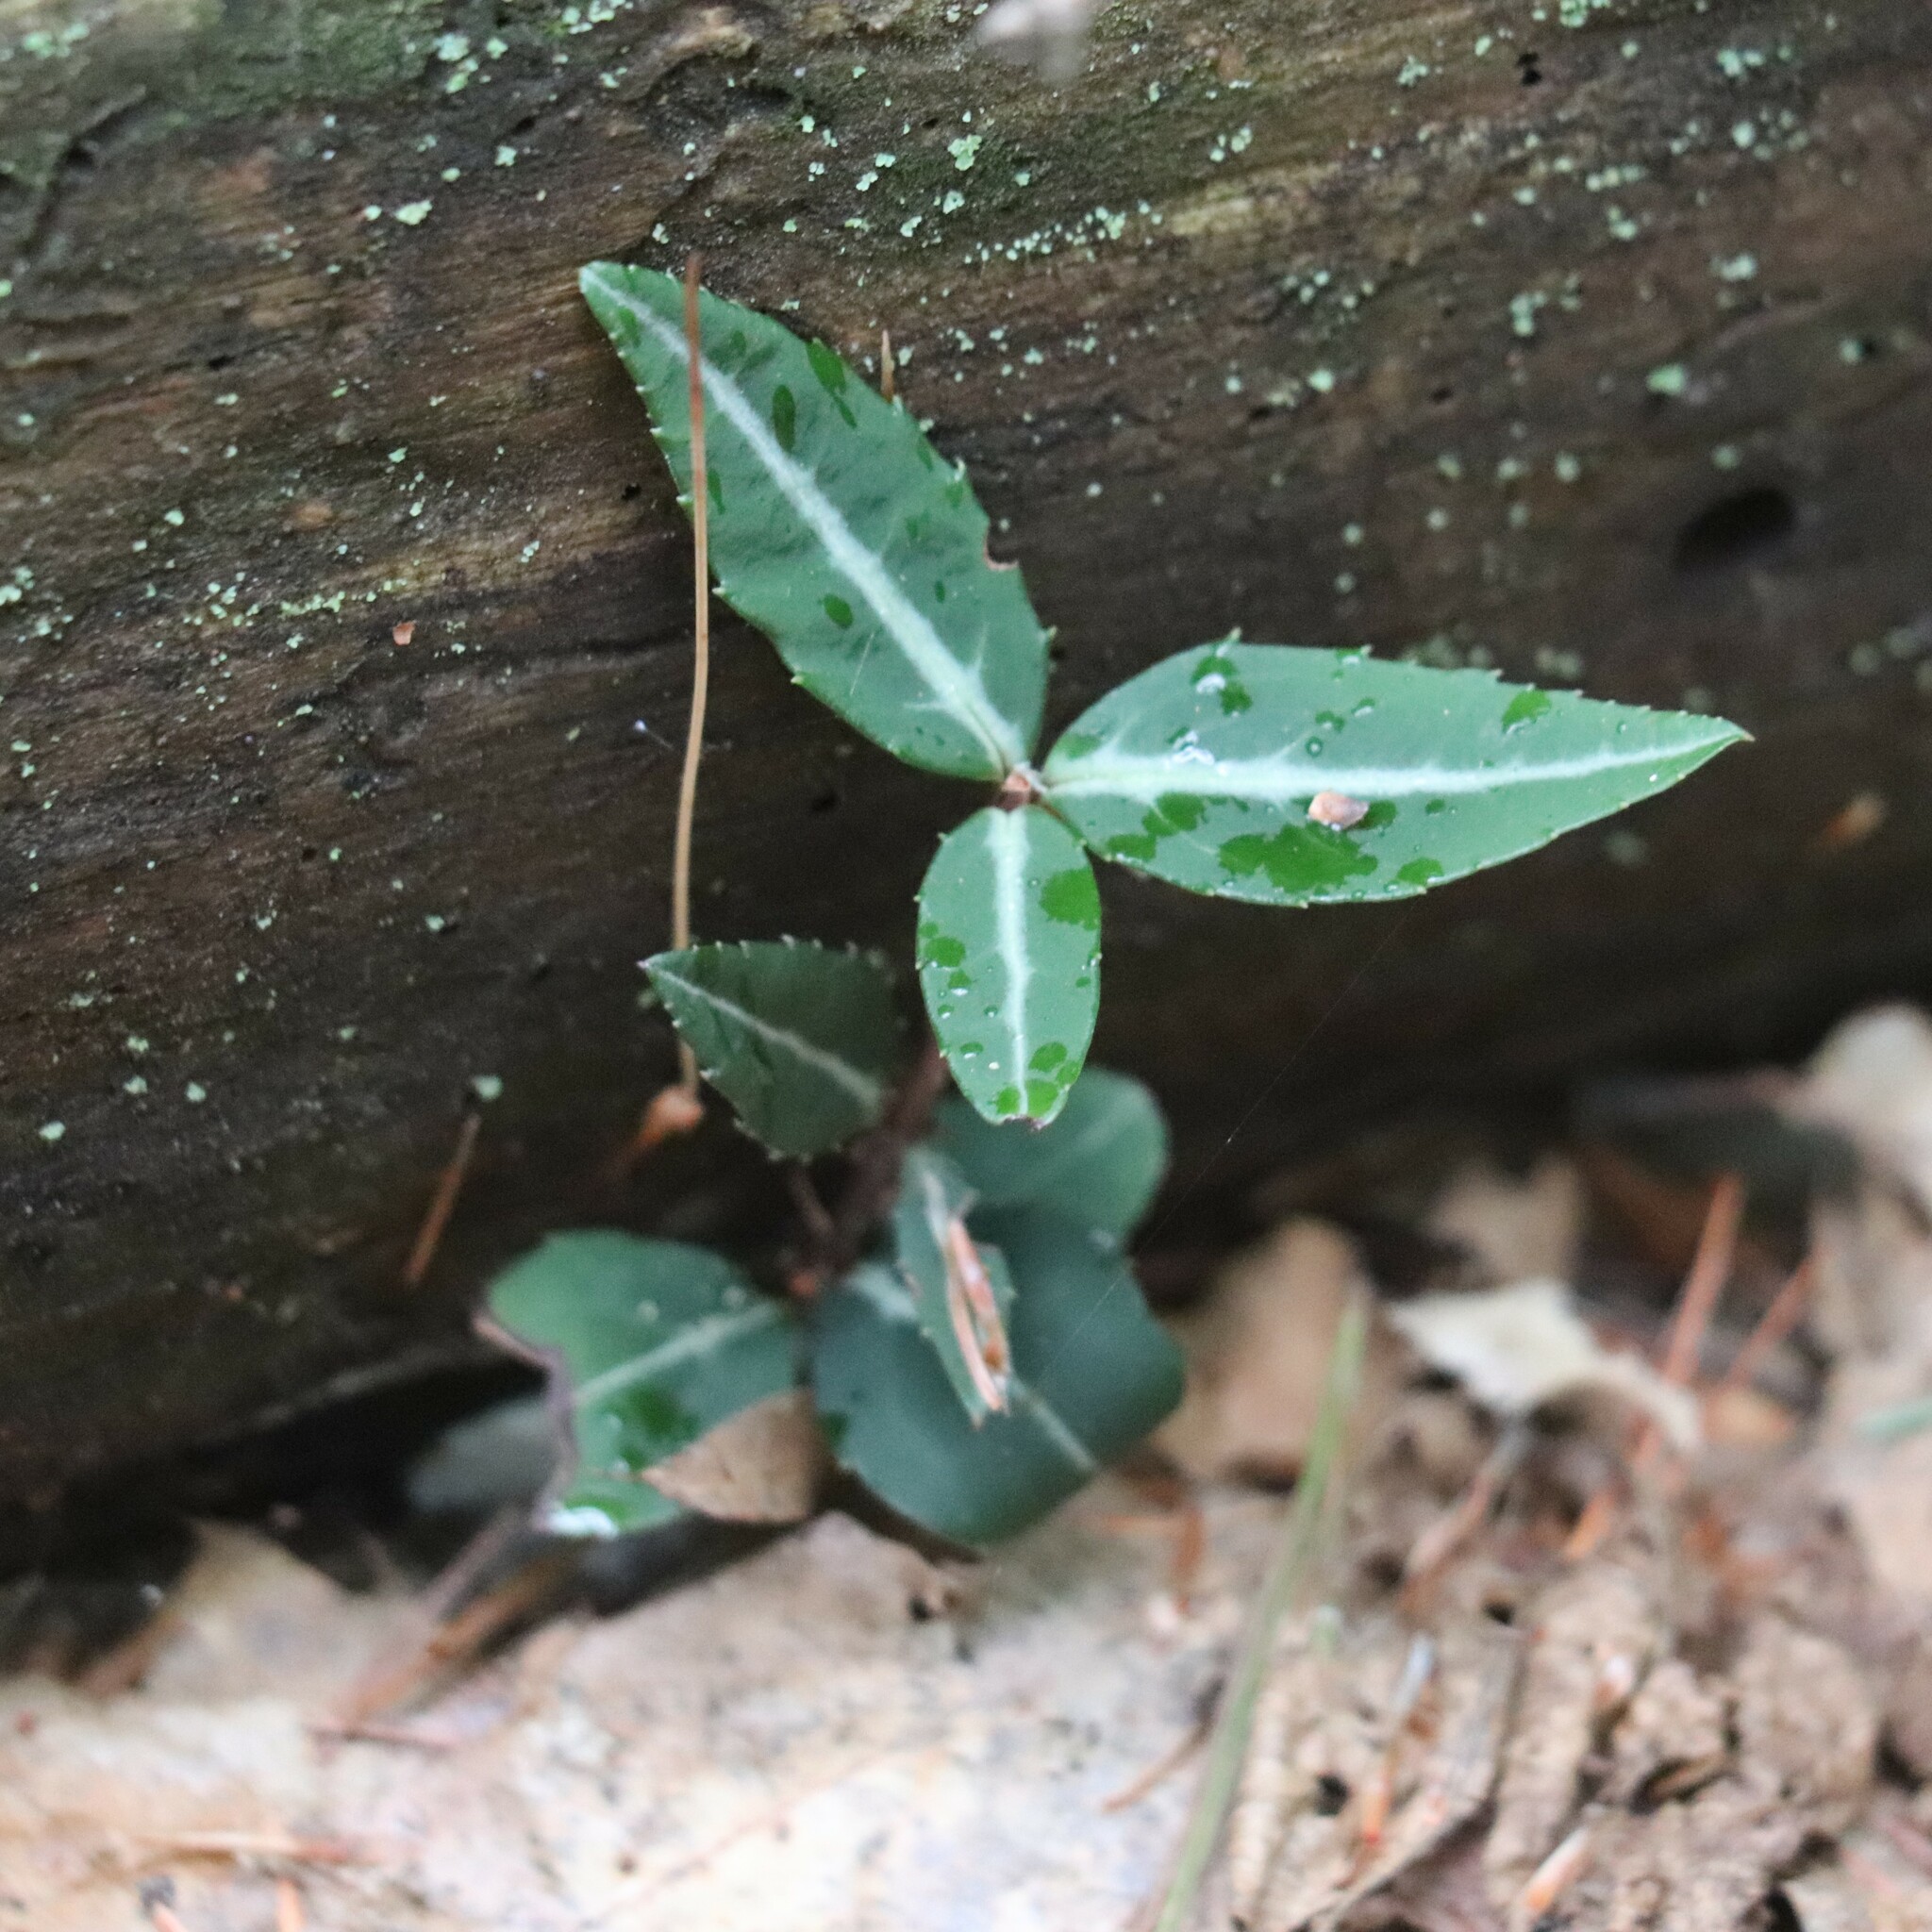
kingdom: Plantae
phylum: Tracheophyta
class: Magnoliopsida
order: Ericales
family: Ericaceae
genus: Chimaphila
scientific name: Chimaphila maculata
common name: Spotted pipsissewa
